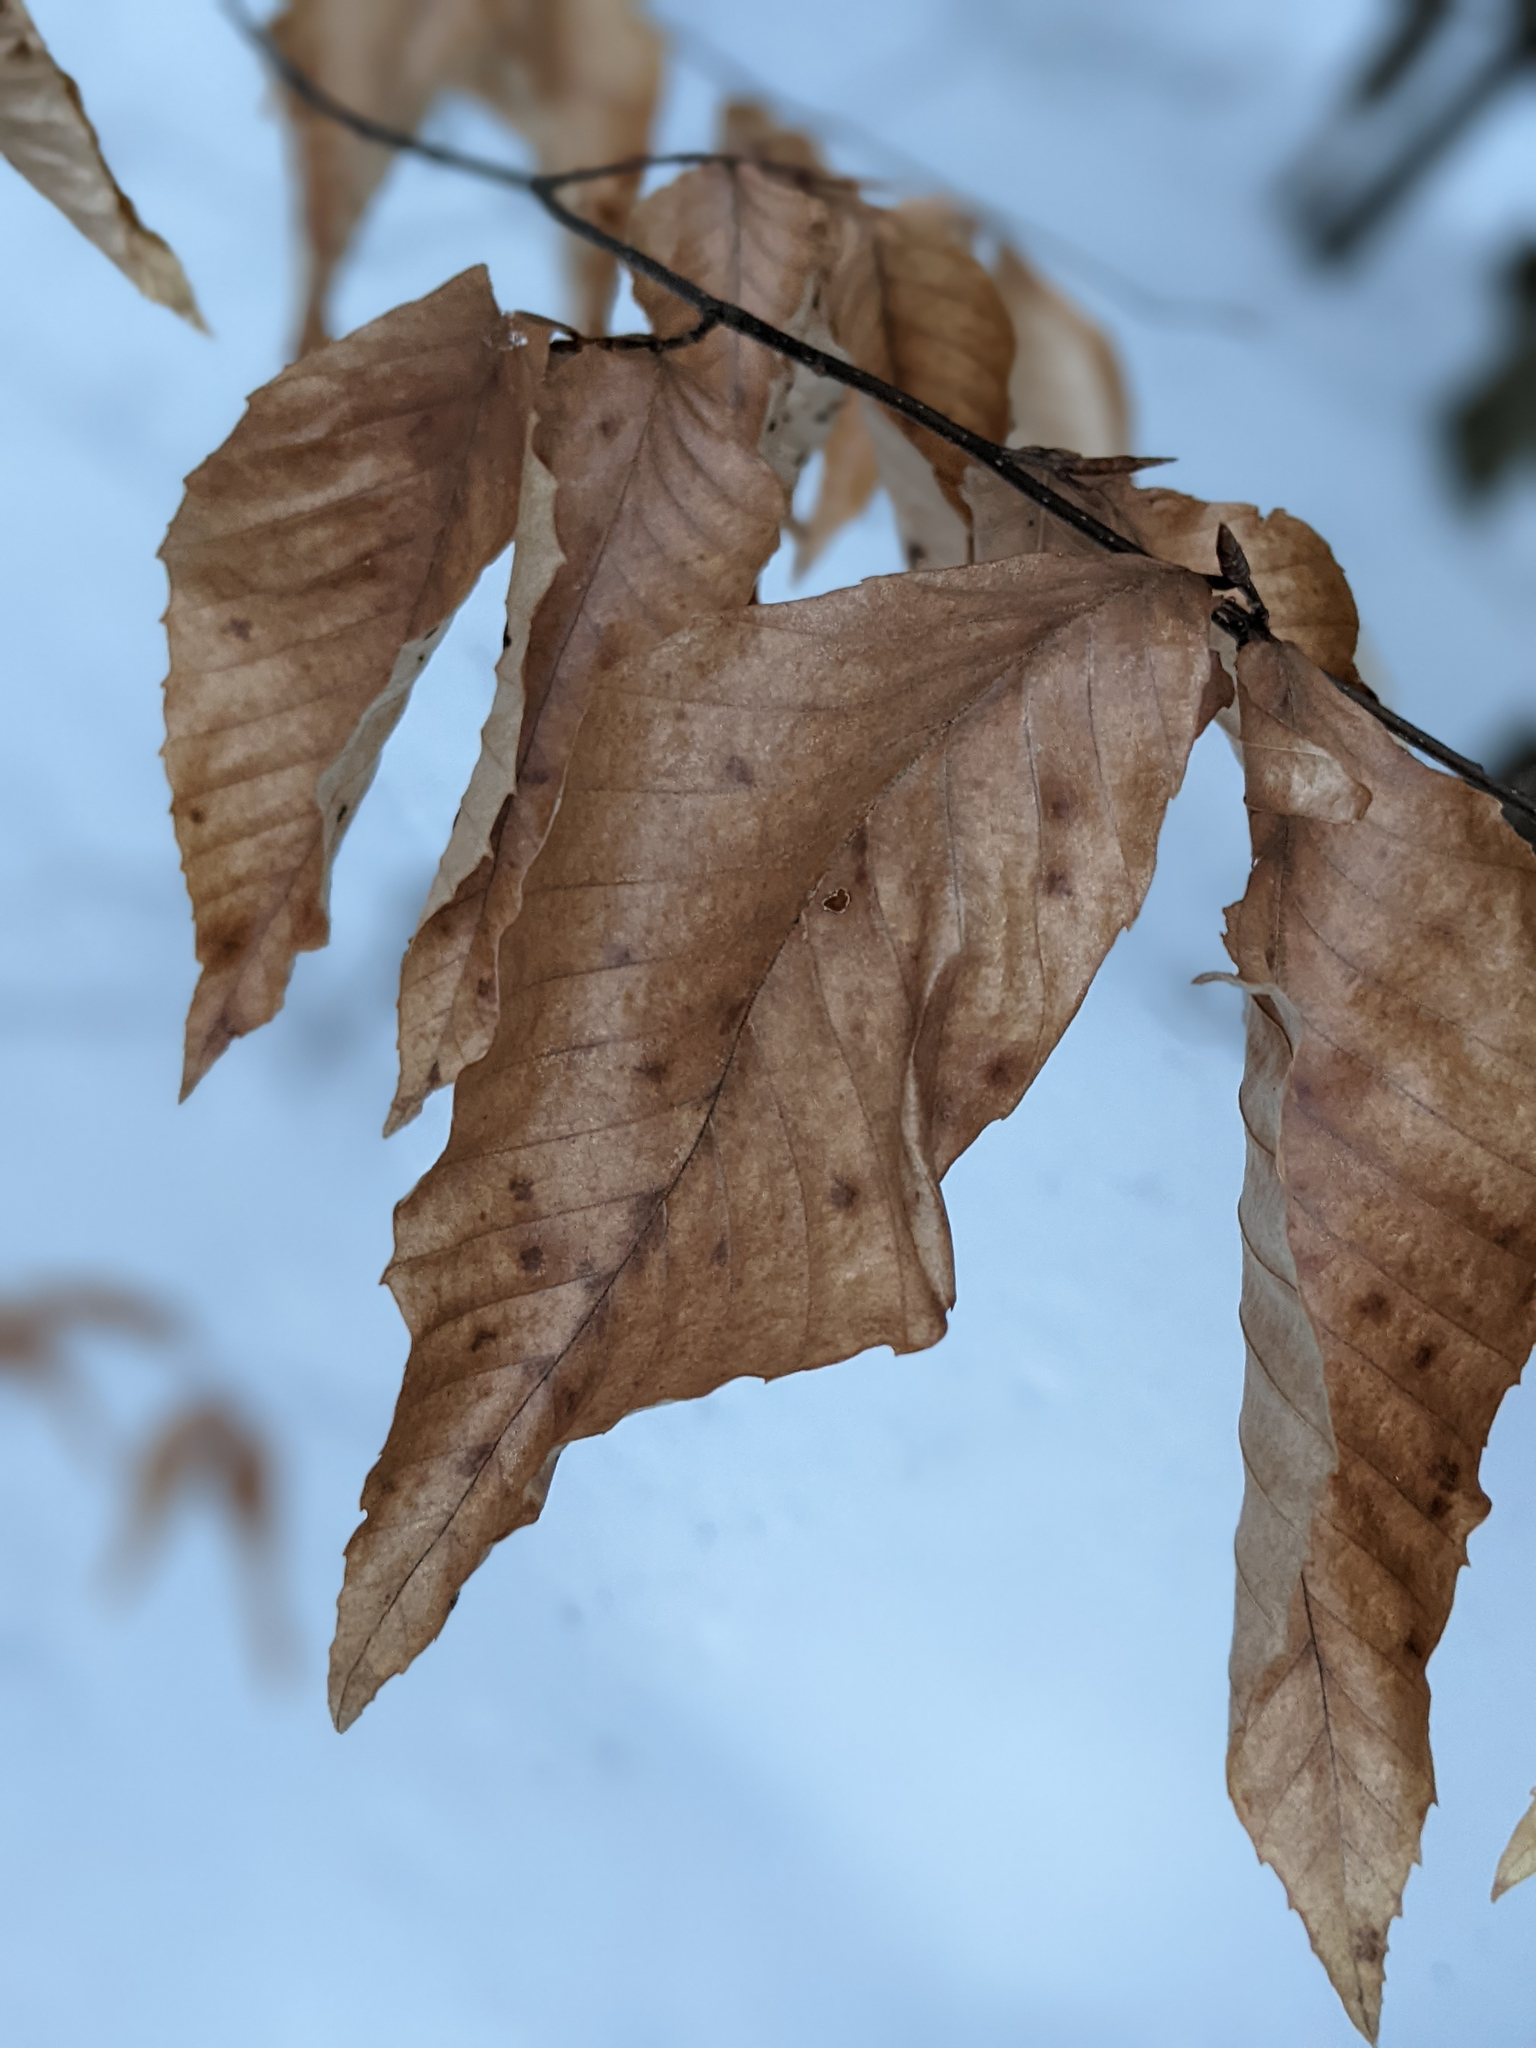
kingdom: Plantae
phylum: Tracheophyta
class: Magnoliopsida
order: Fagales
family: Fagaceae
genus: Fagus
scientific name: Fagus grandifolia
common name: American beech
